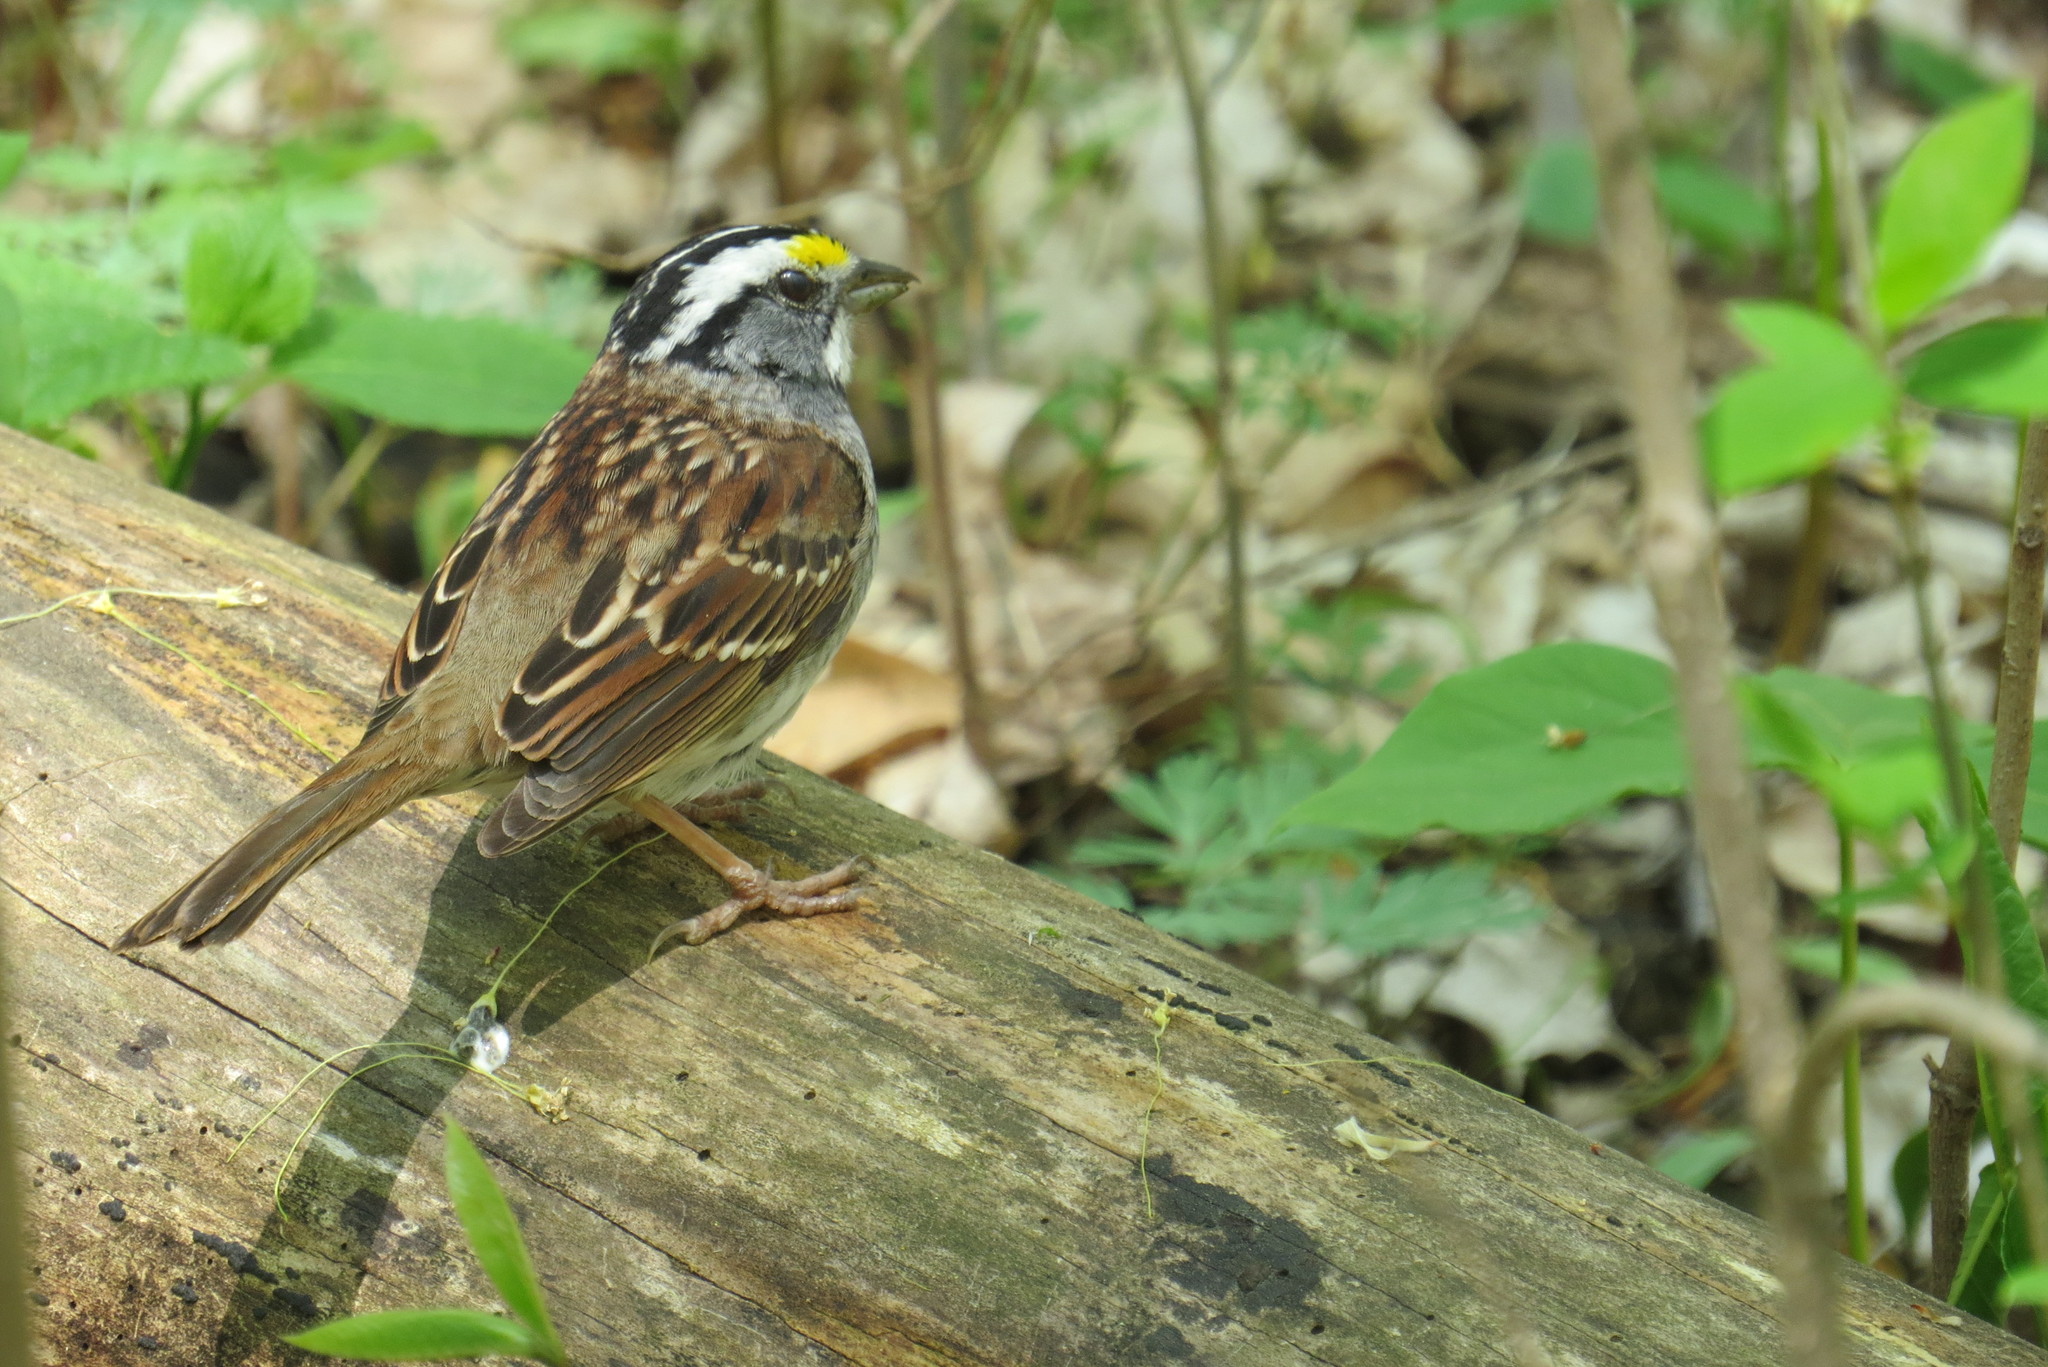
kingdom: Animalia
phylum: Chordata
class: Aves
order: Passeriformes
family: Passerellidae
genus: Zonotrichia
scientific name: Zonotrichia albicollis
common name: White-throated sparrow
